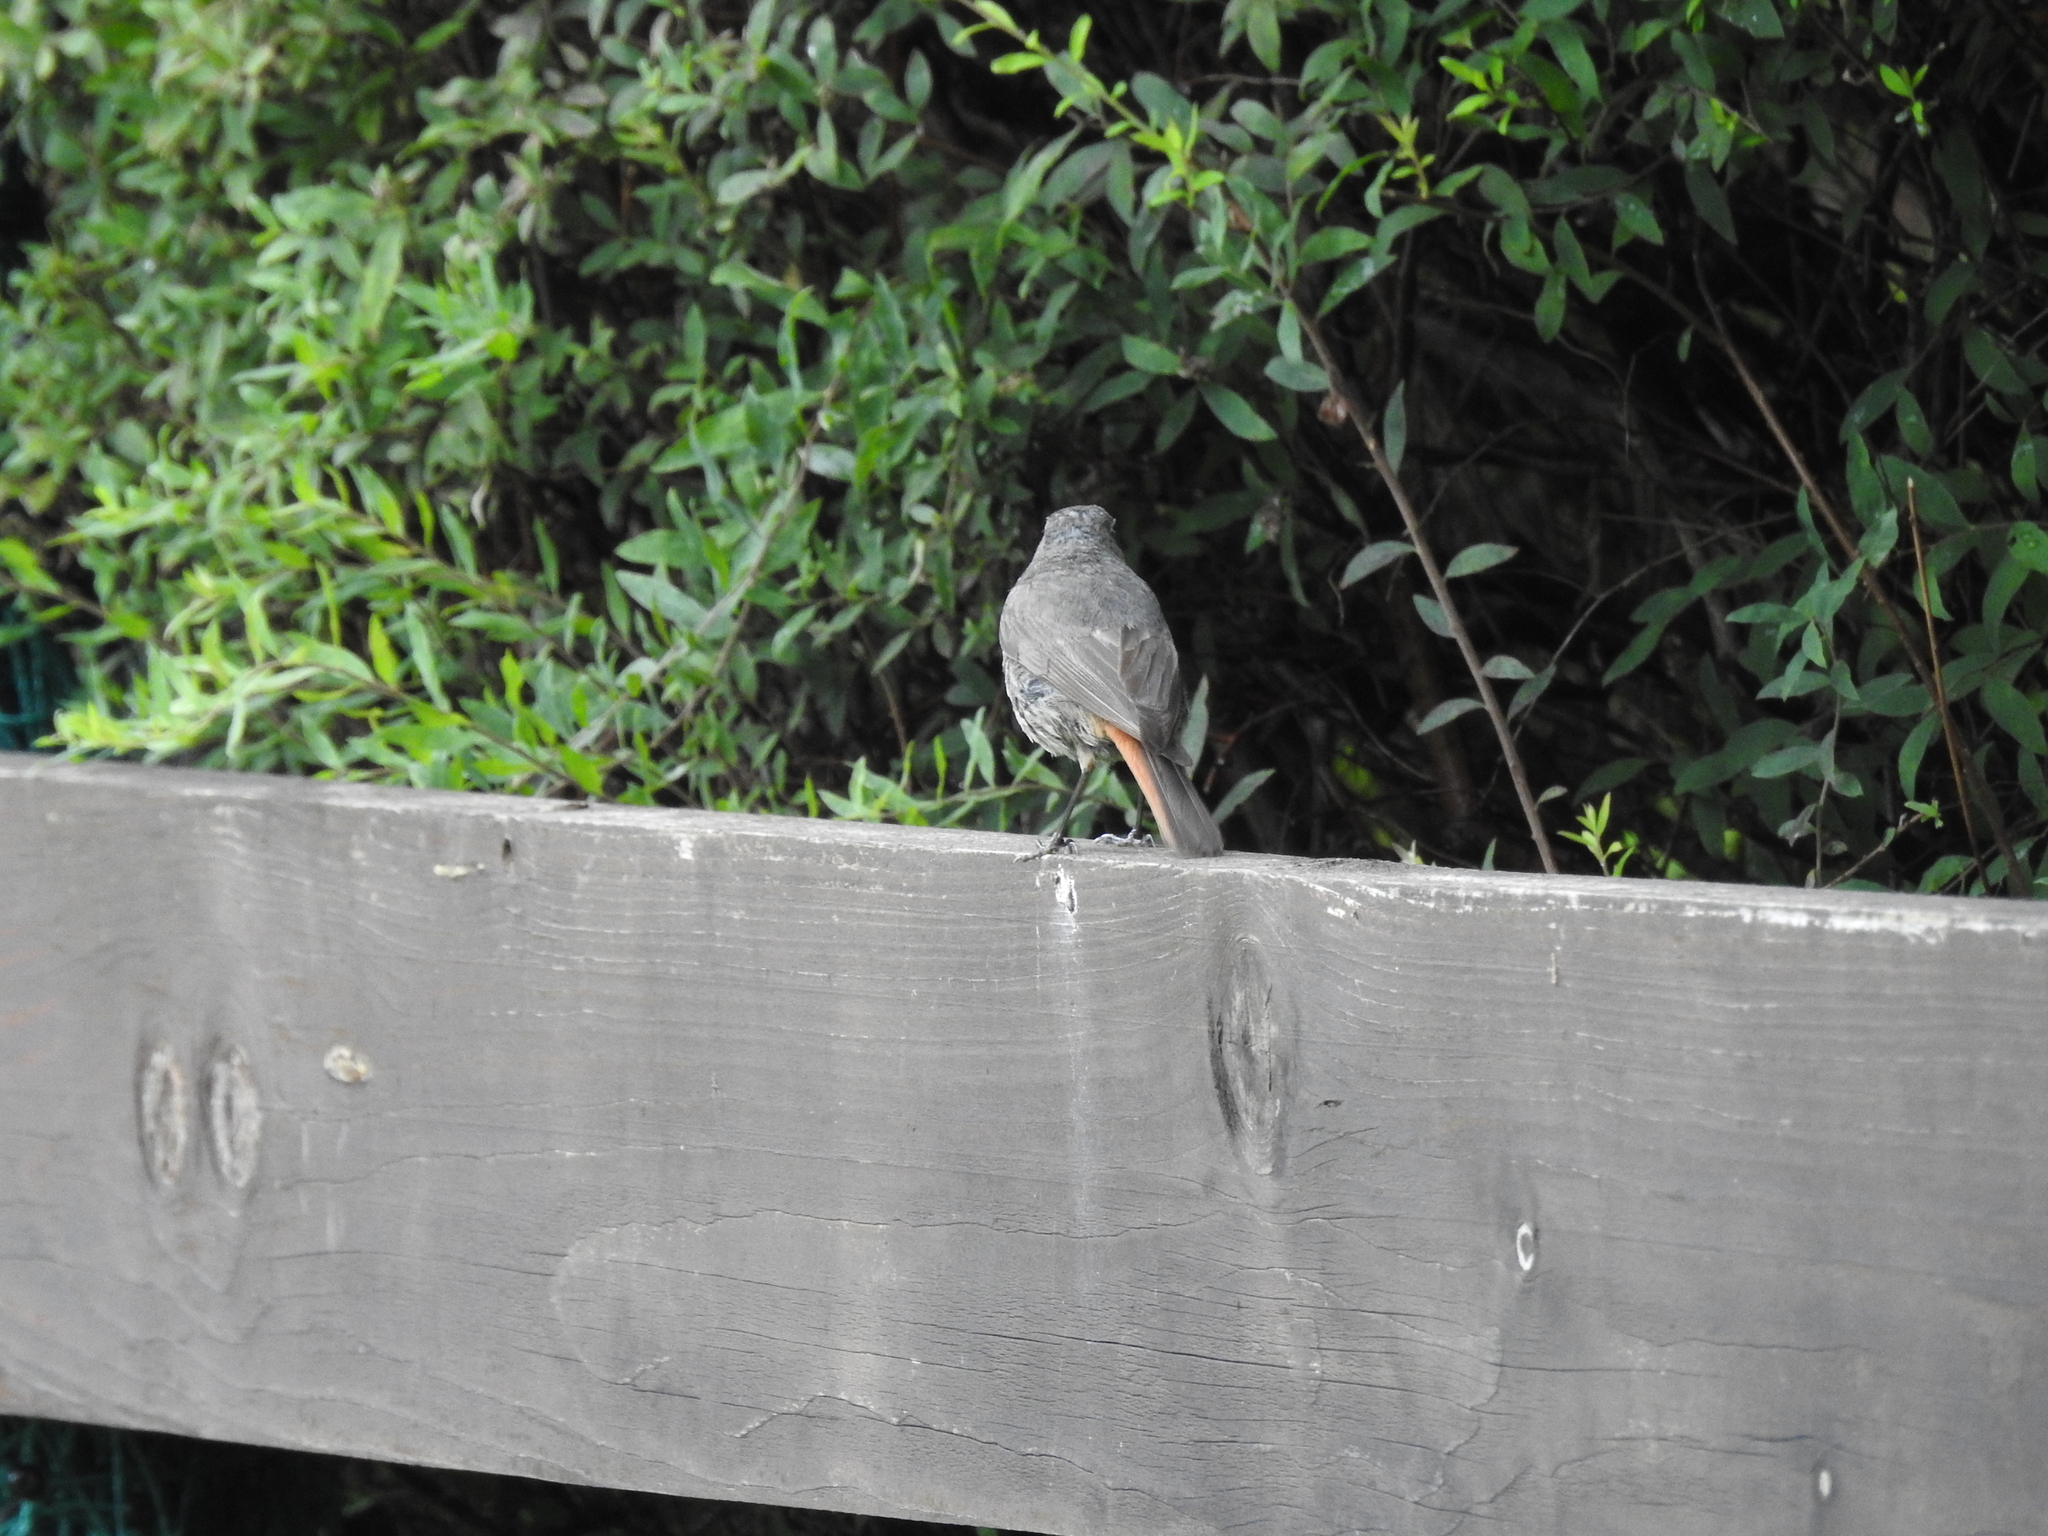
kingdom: Animalia
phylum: Chordata
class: Aves
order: Passeriformes
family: Muscicapidae
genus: Phoenicurus
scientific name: Phoenicurus ochruros
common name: Black redstart
